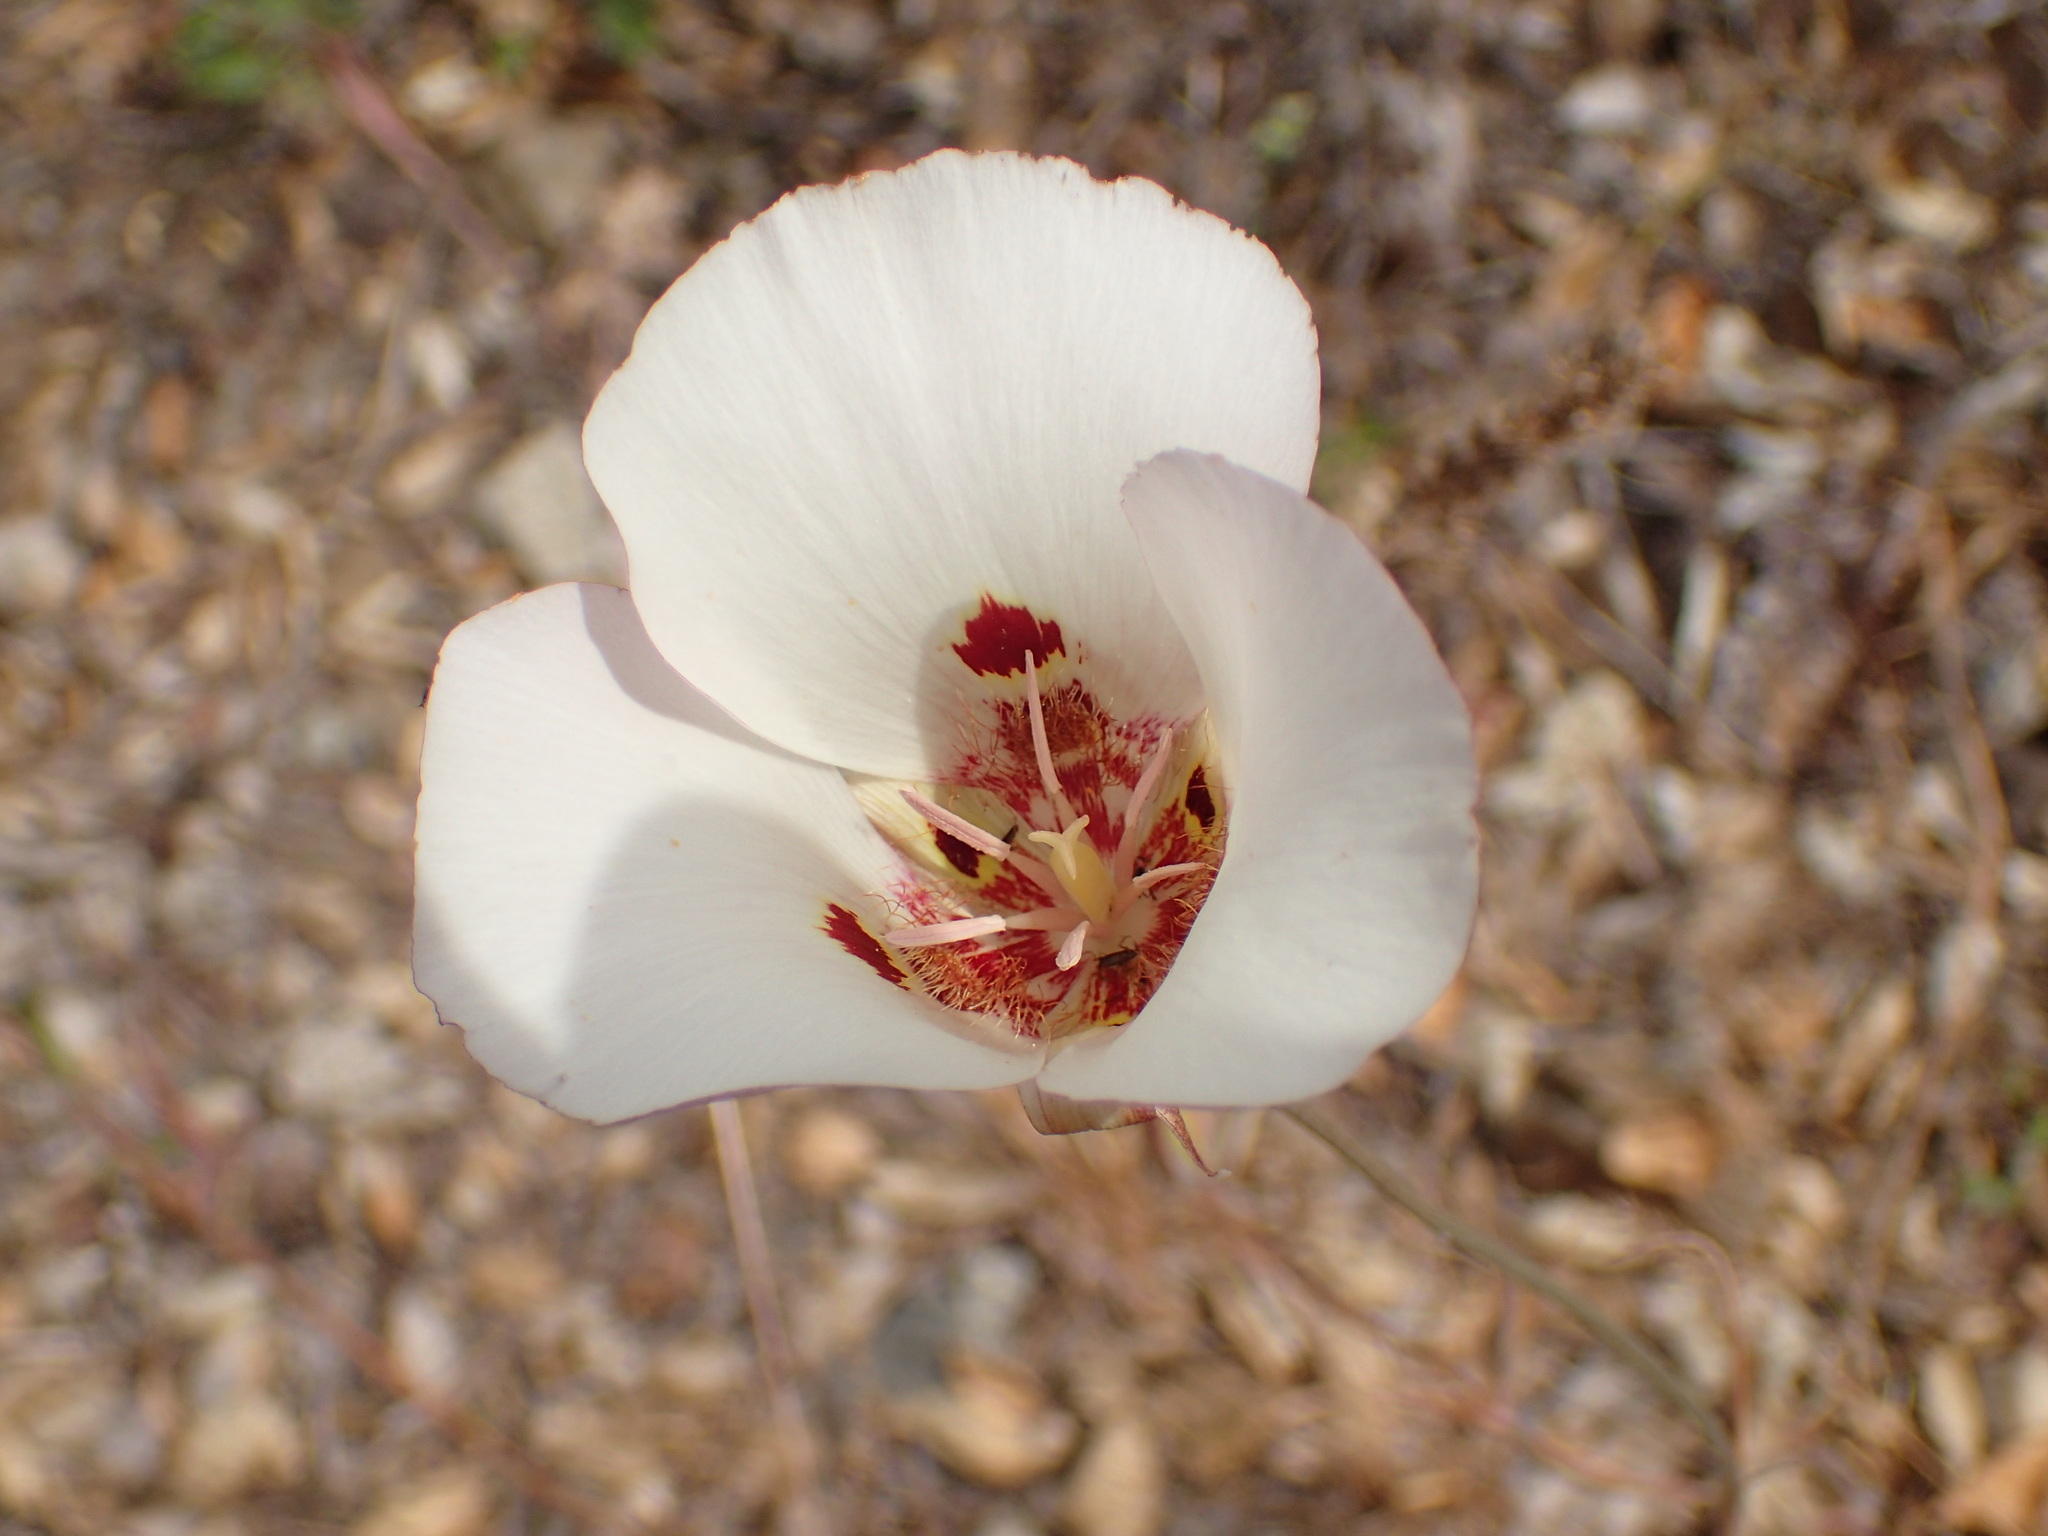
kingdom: Plantae
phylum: Tracheophyta
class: Liliopsida
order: Liliales
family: Liliaceae
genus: Calochortus
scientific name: Calochortus venustus
